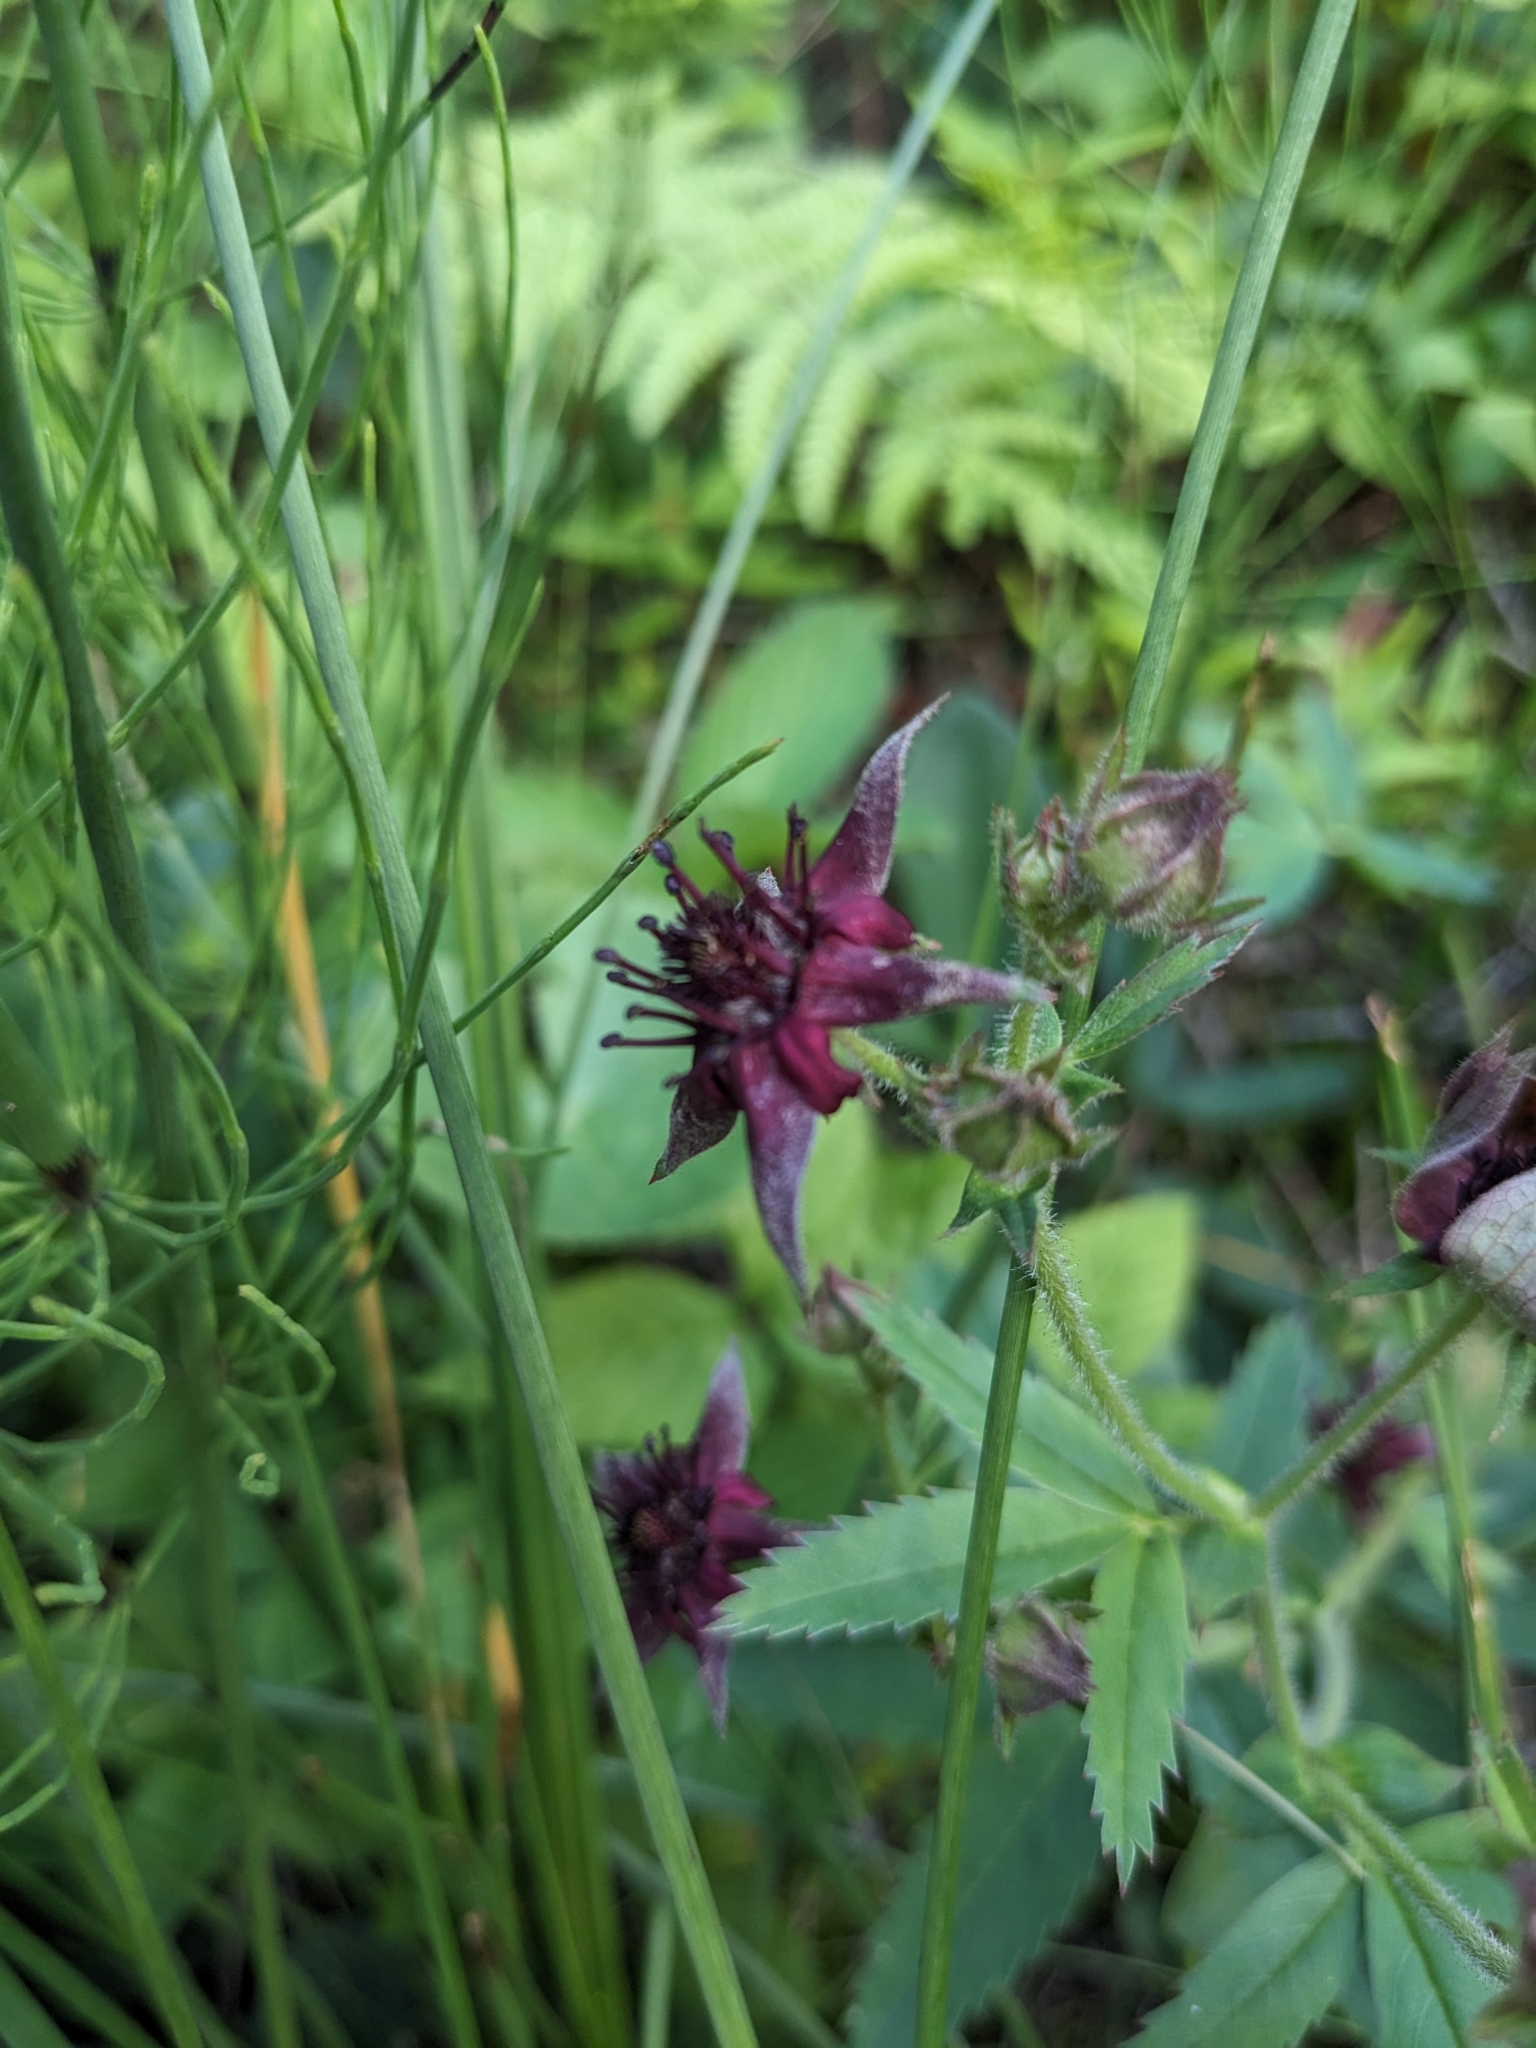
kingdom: Plantae
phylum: Tracheophyta
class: Magnoliopsida
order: Rosales
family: Rosaceae
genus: Comarum
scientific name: Comarum palustre
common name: Marsh cinquefoil
